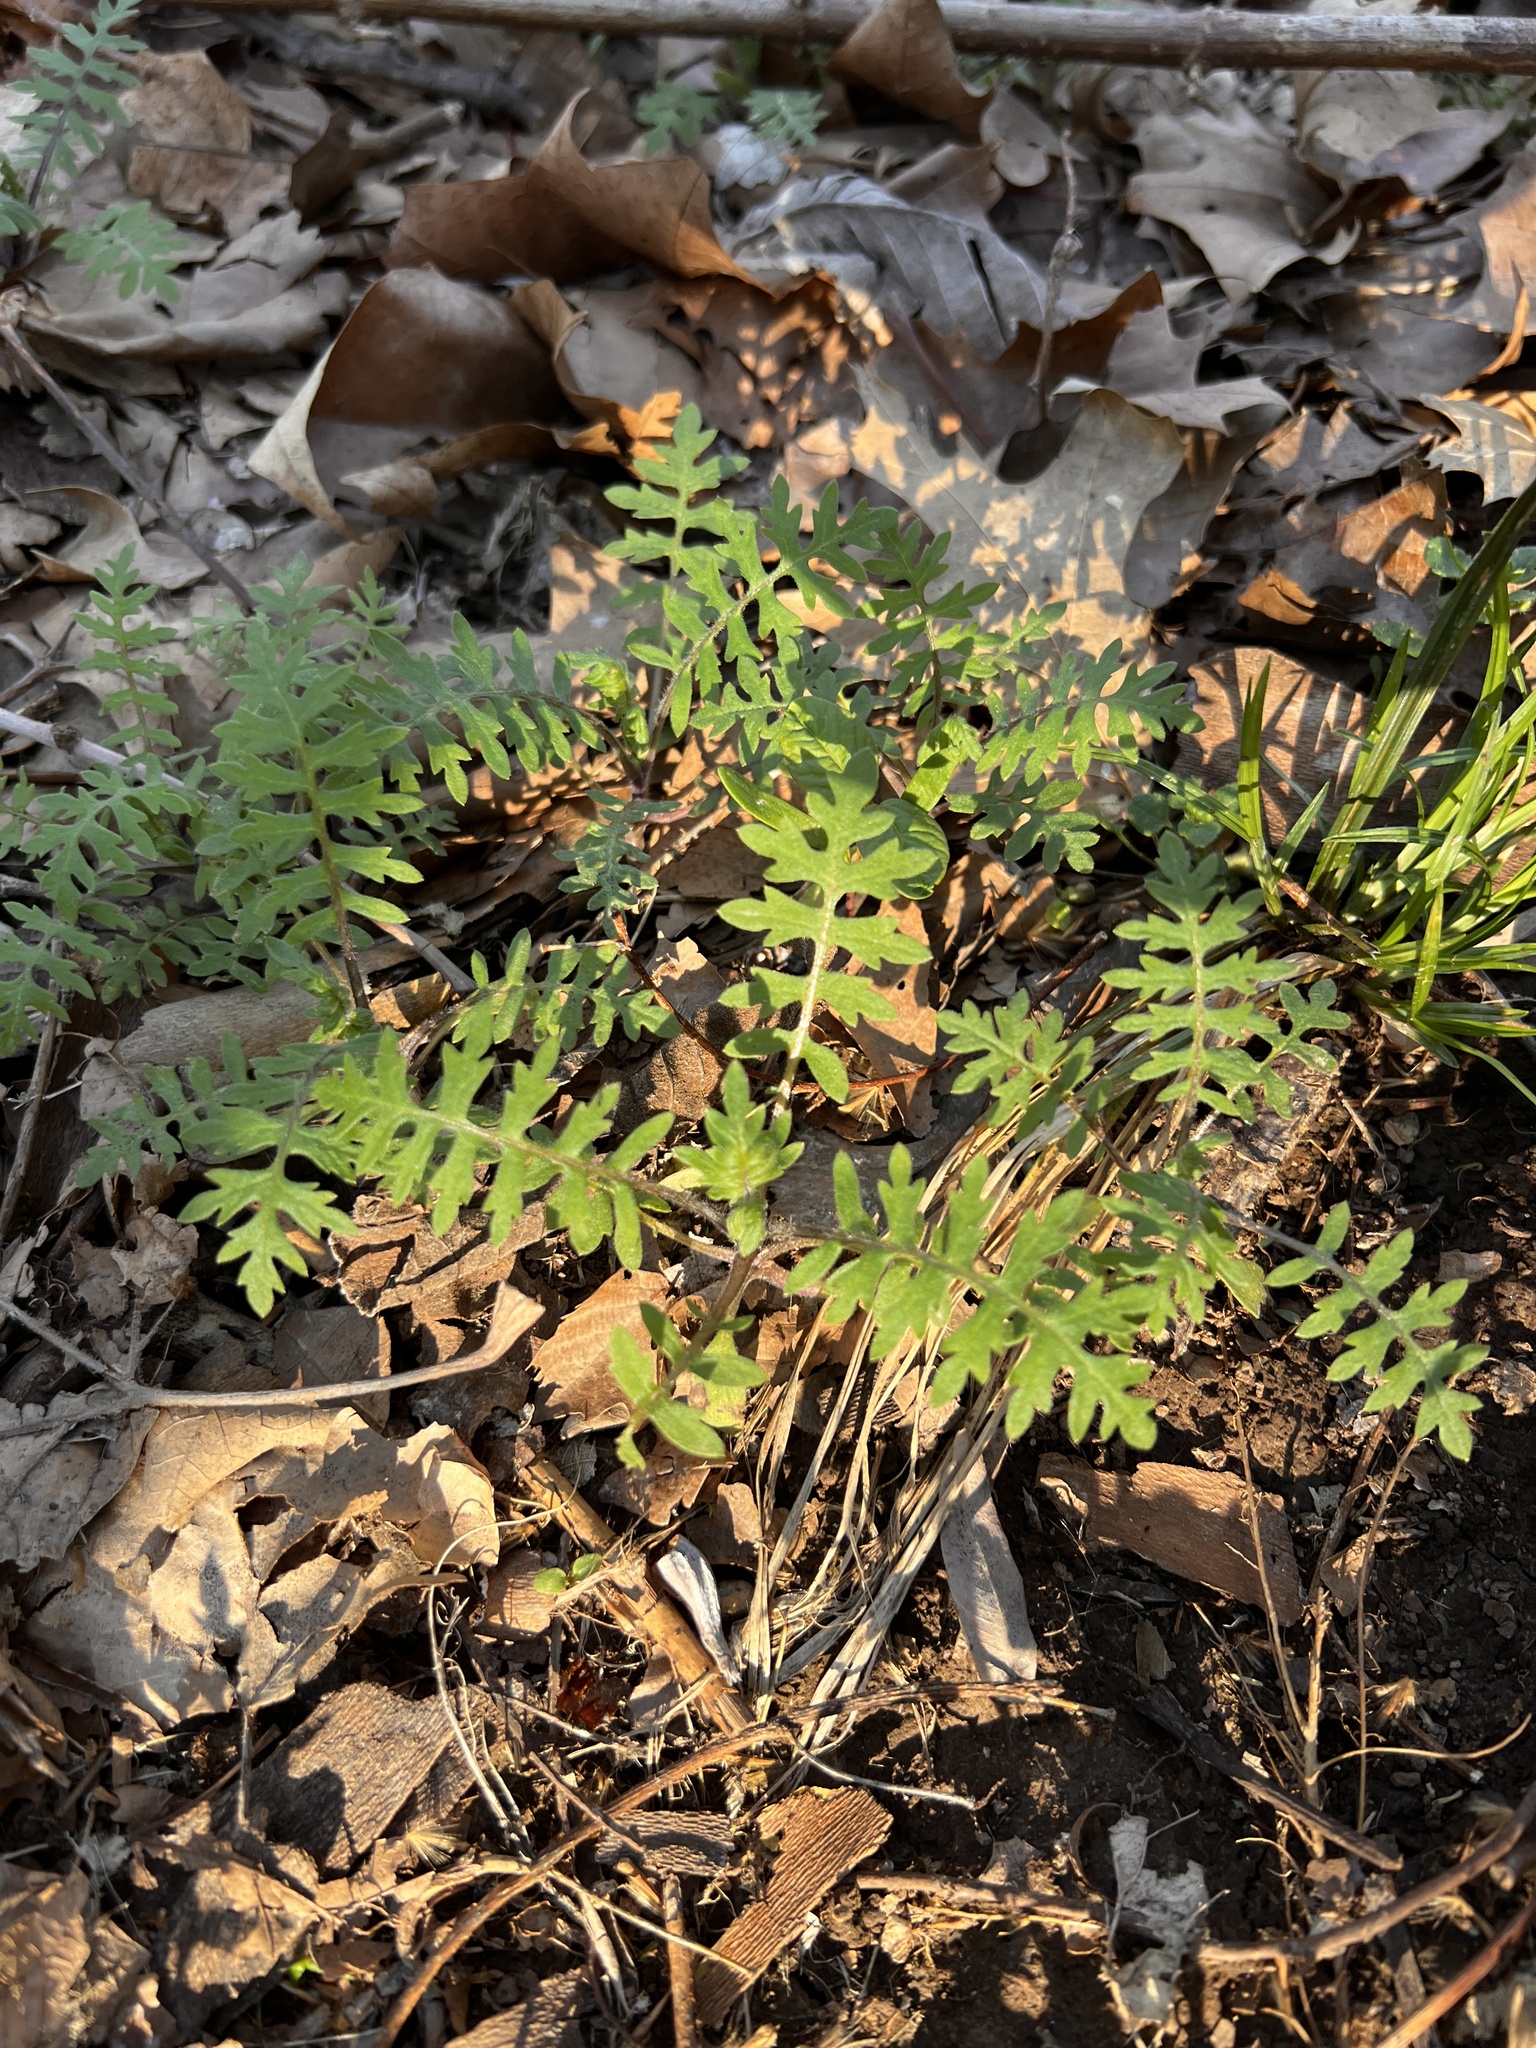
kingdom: Plantae
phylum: Tracheophyta
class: Magnoliopsida
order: Boraginales
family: Hydrophyllaceae
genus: Ellisia
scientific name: Ellisia nyctelea
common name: Aunt lucy
